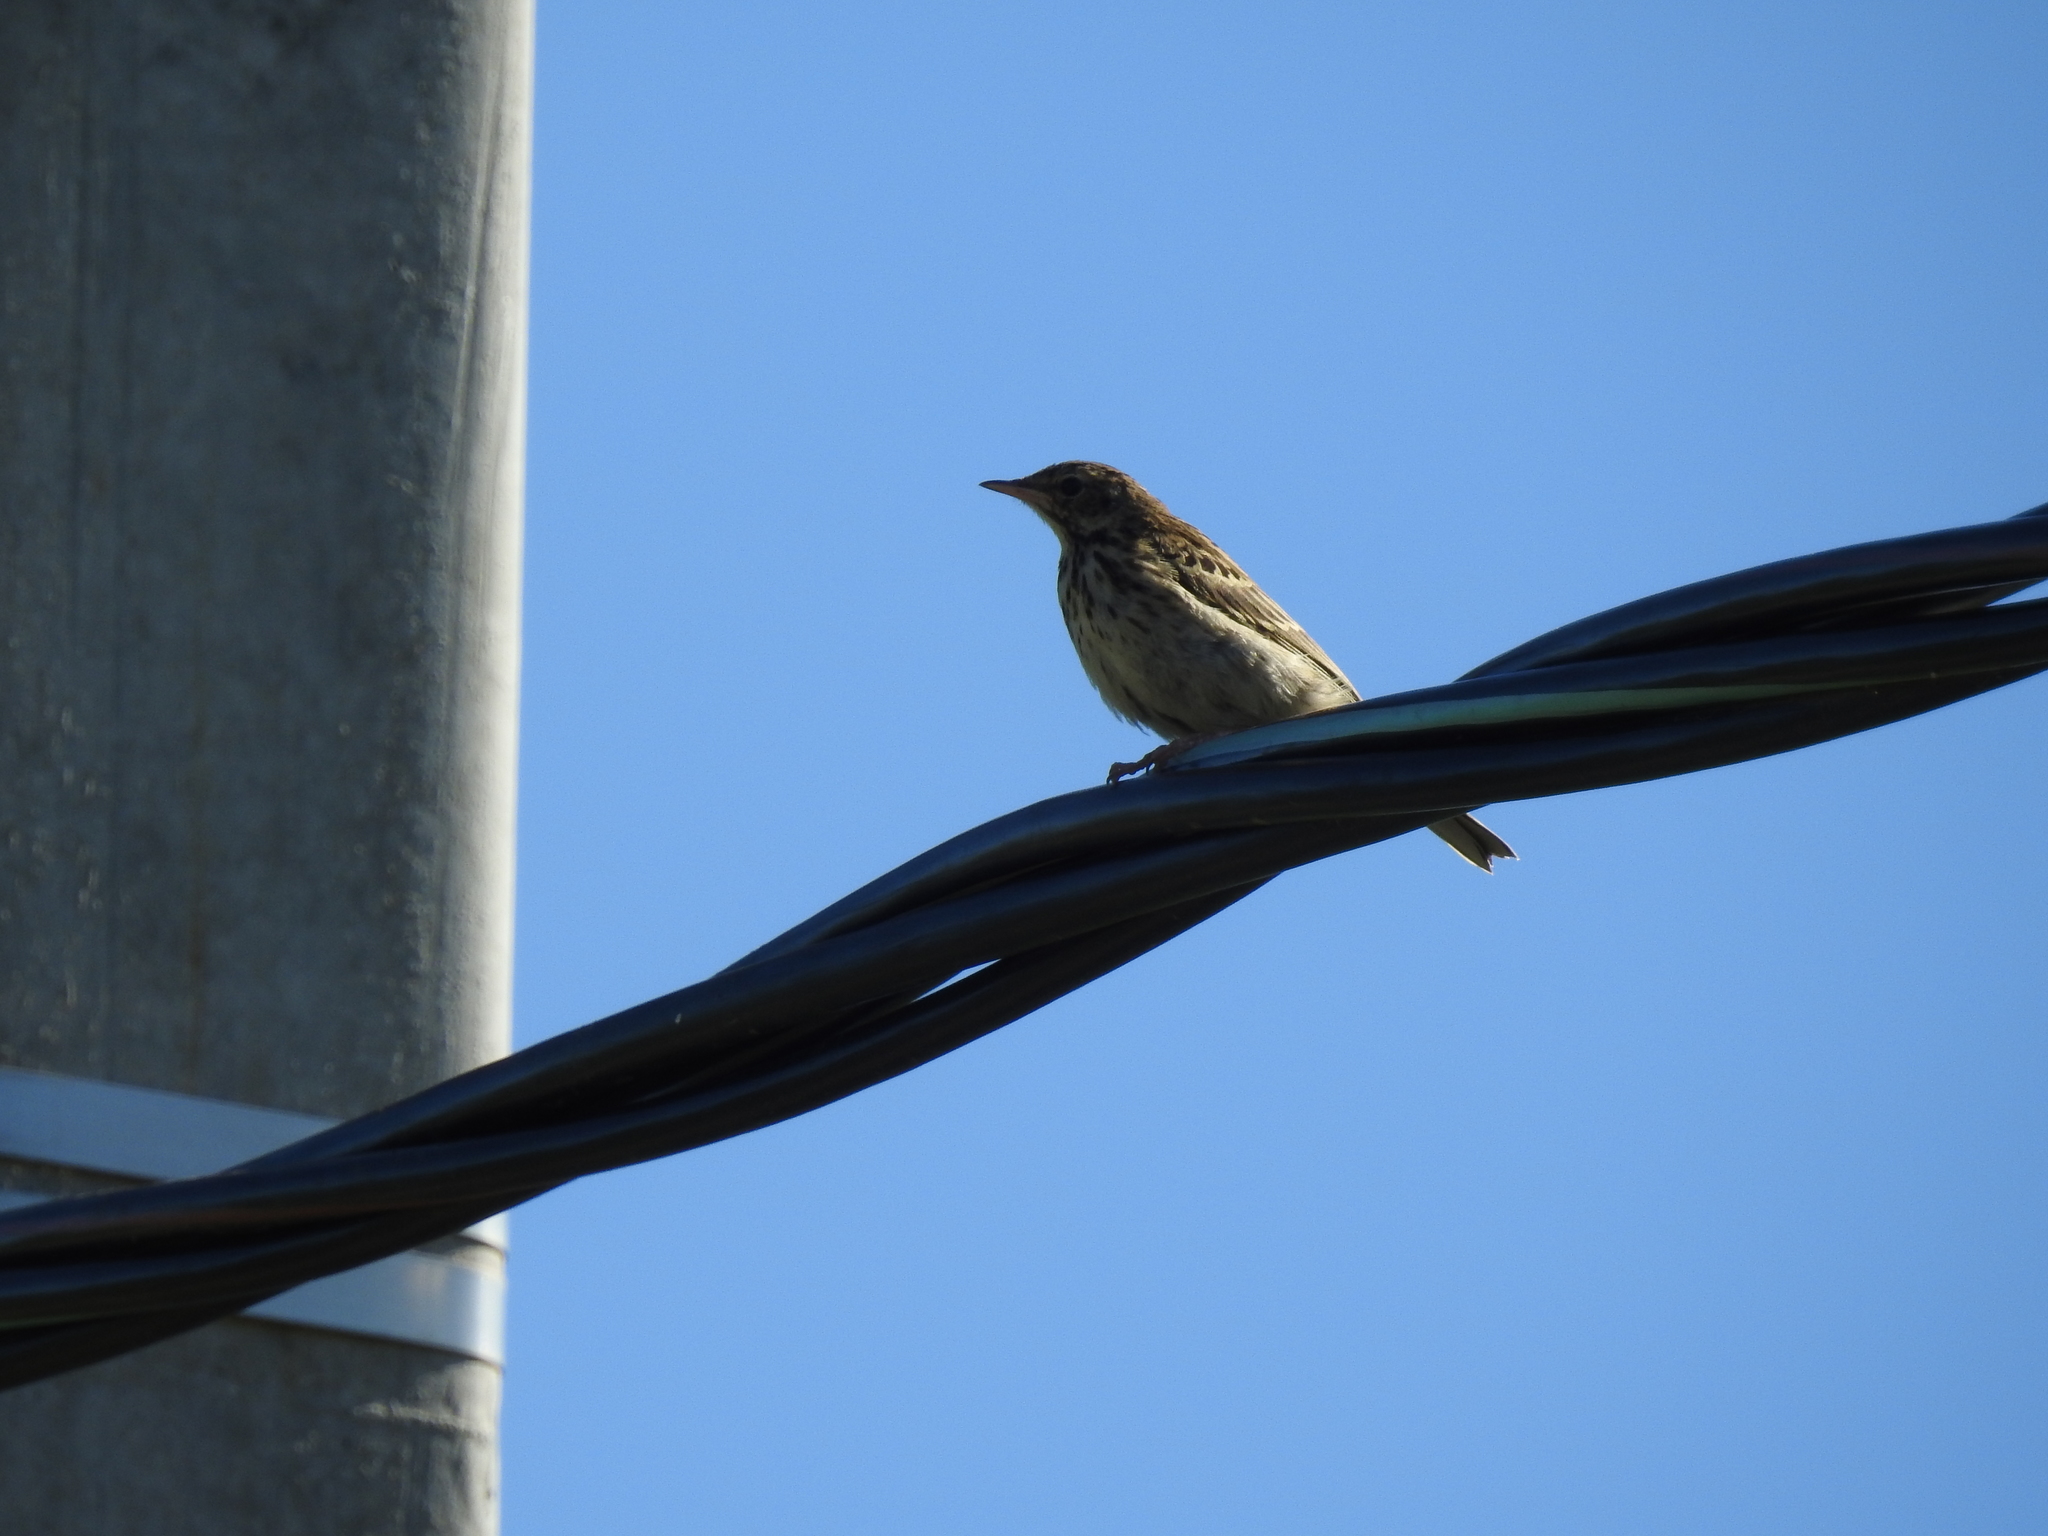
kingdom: Animalia
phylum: Chordata
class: Aves
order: Passeriformes
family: Motacillidae
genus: Anthus
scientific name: Anthus trivialis
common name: Tree pipit
